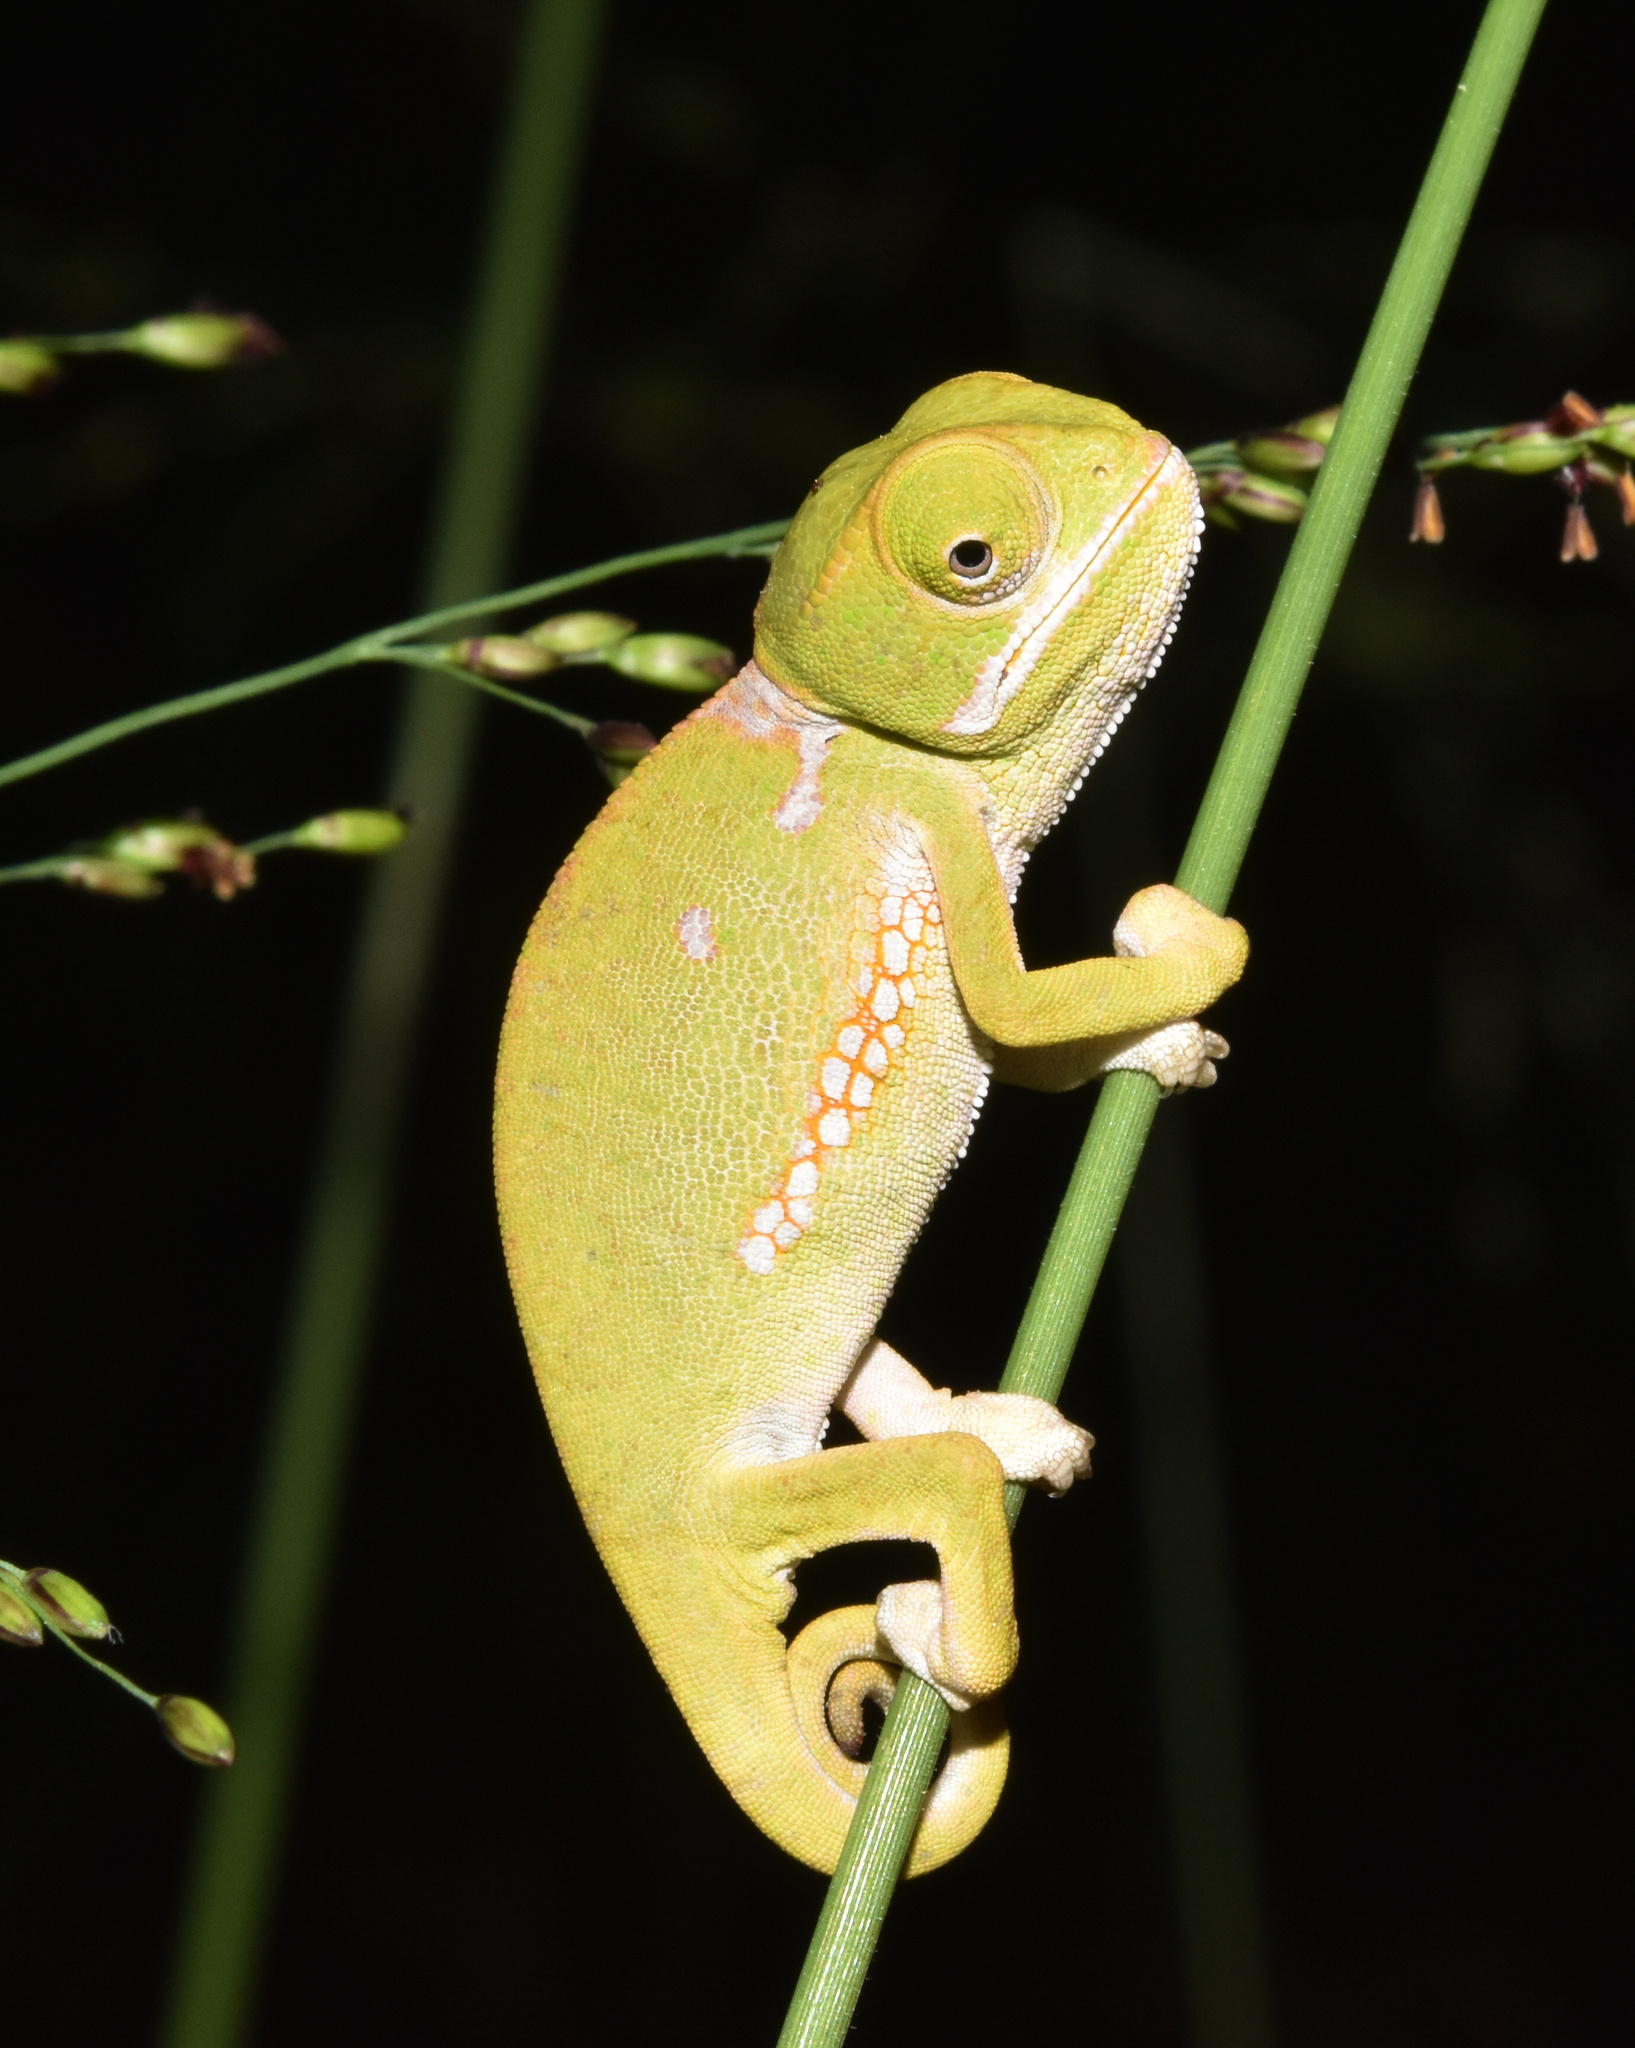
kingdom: Animalia
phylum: Chordata
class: Squamata
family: Chamaeleonidae
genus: Chamaeleo
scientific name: Chamaeleo dilepis
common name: Flapneck chameleon
